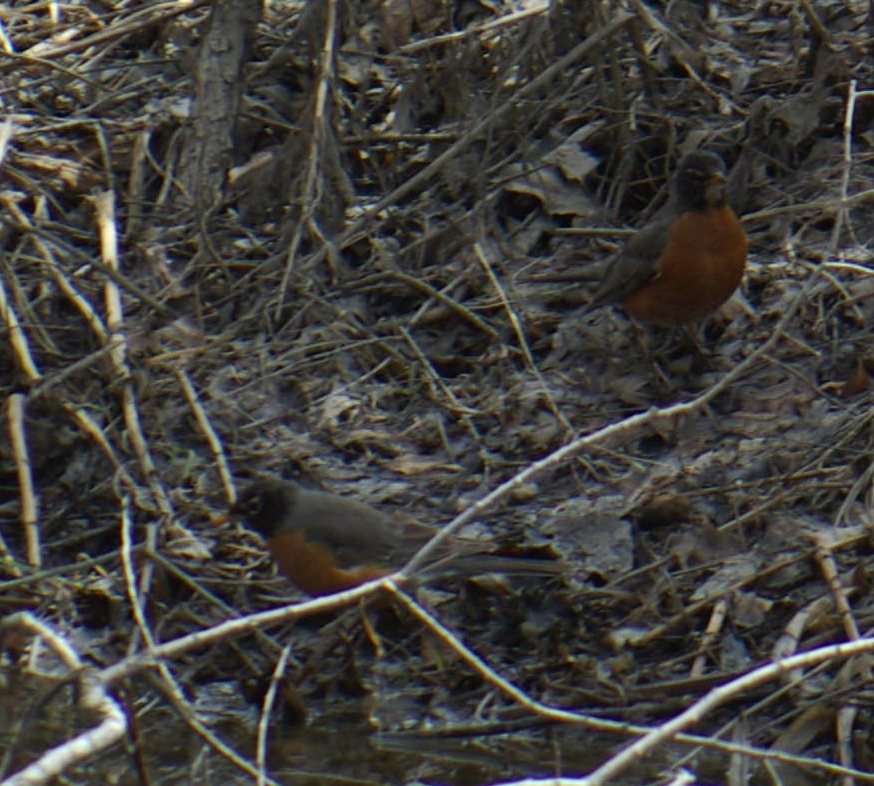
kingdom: Animalia
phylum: Chordata
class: Aves
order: Passeriformes
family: Turdidae
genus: Turdus
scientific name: Turdus migratorius
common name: American robin
